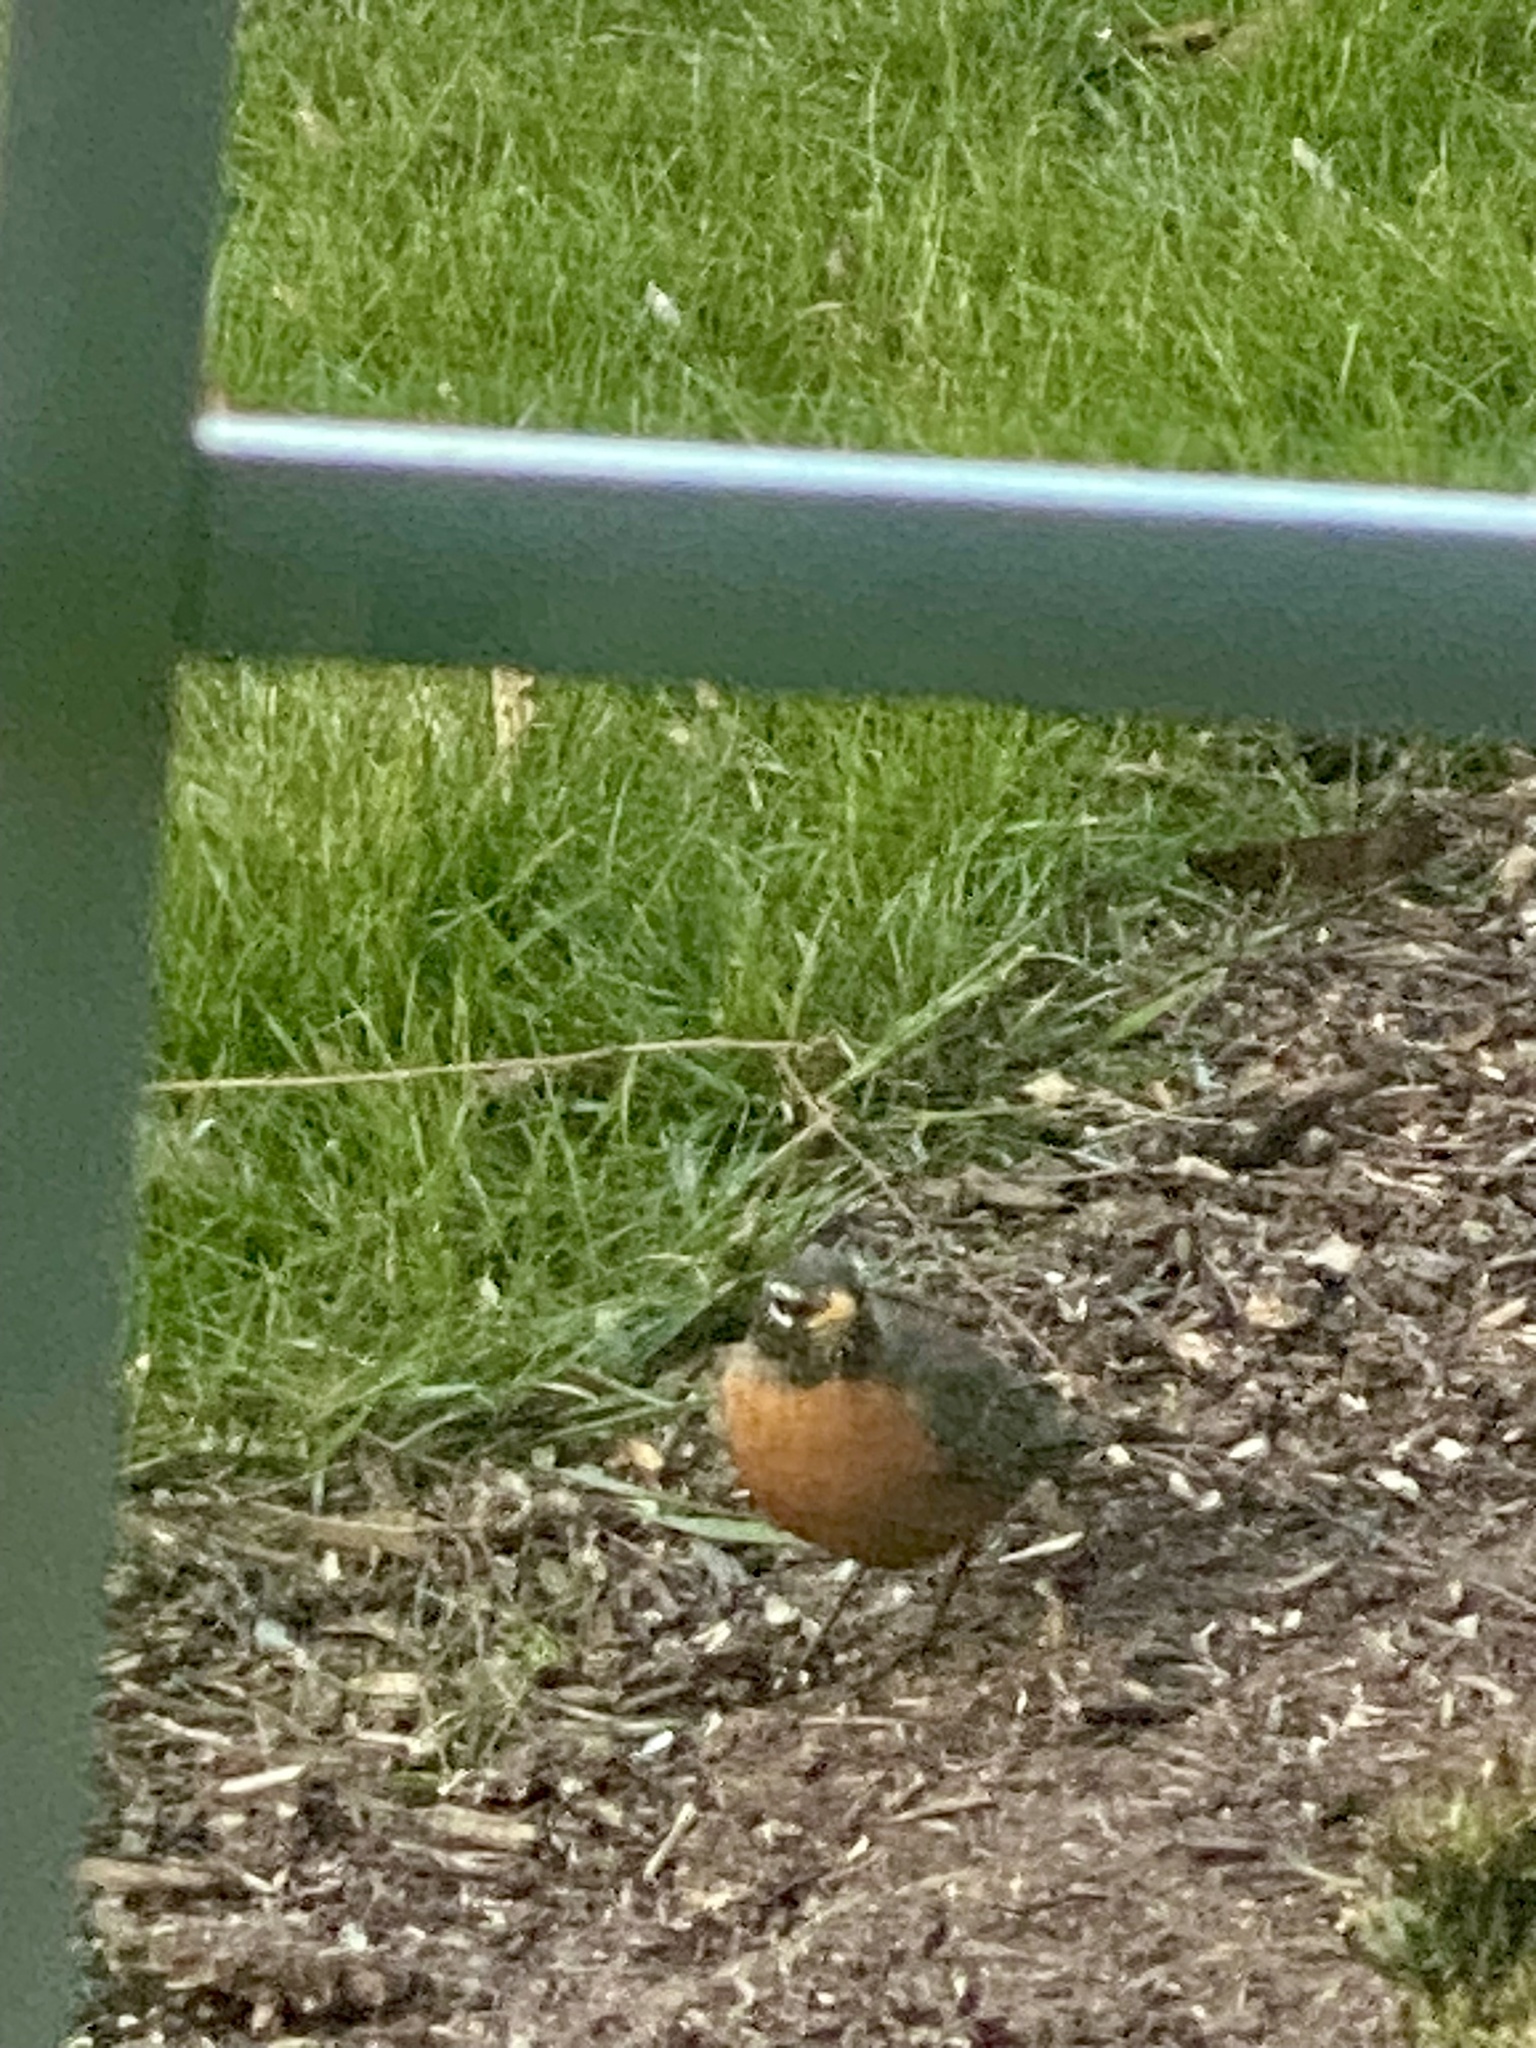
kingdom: Animalia
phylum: Chordata
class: Aves
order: Passeriformes
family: Turdidae
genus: Turdus
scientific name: Turdus migratorius
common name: American robin
